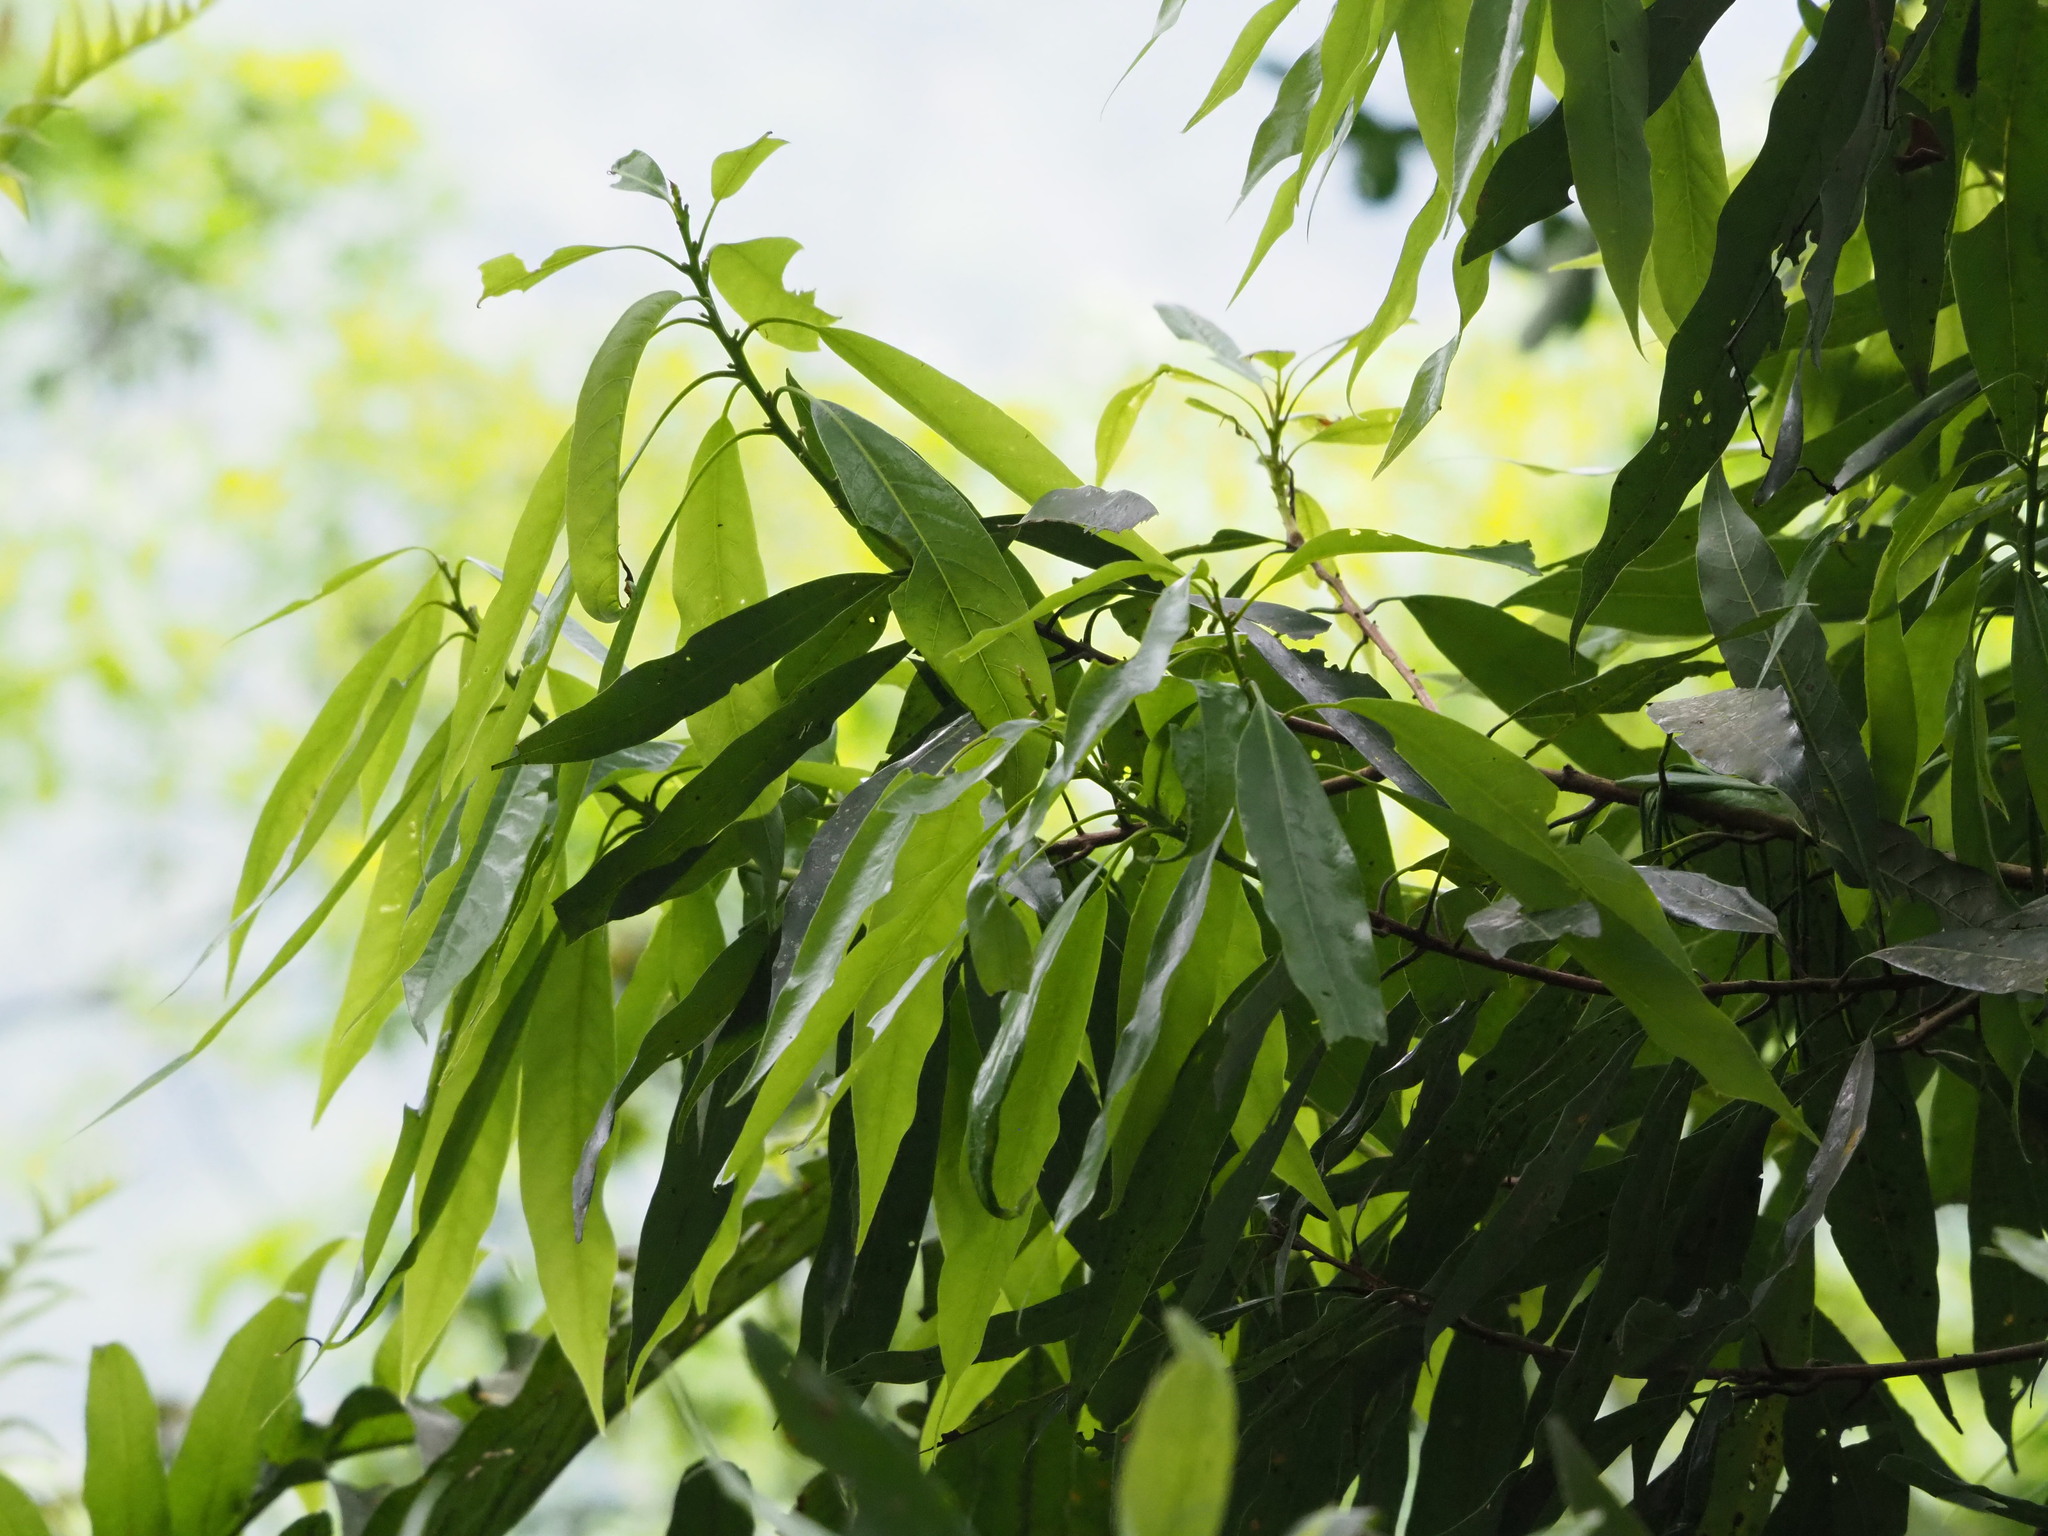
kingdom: Plantae
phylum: Tracheophyta
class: Magnoliopsida
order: Laurales
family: Lauraceae
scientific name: Lauraceae
